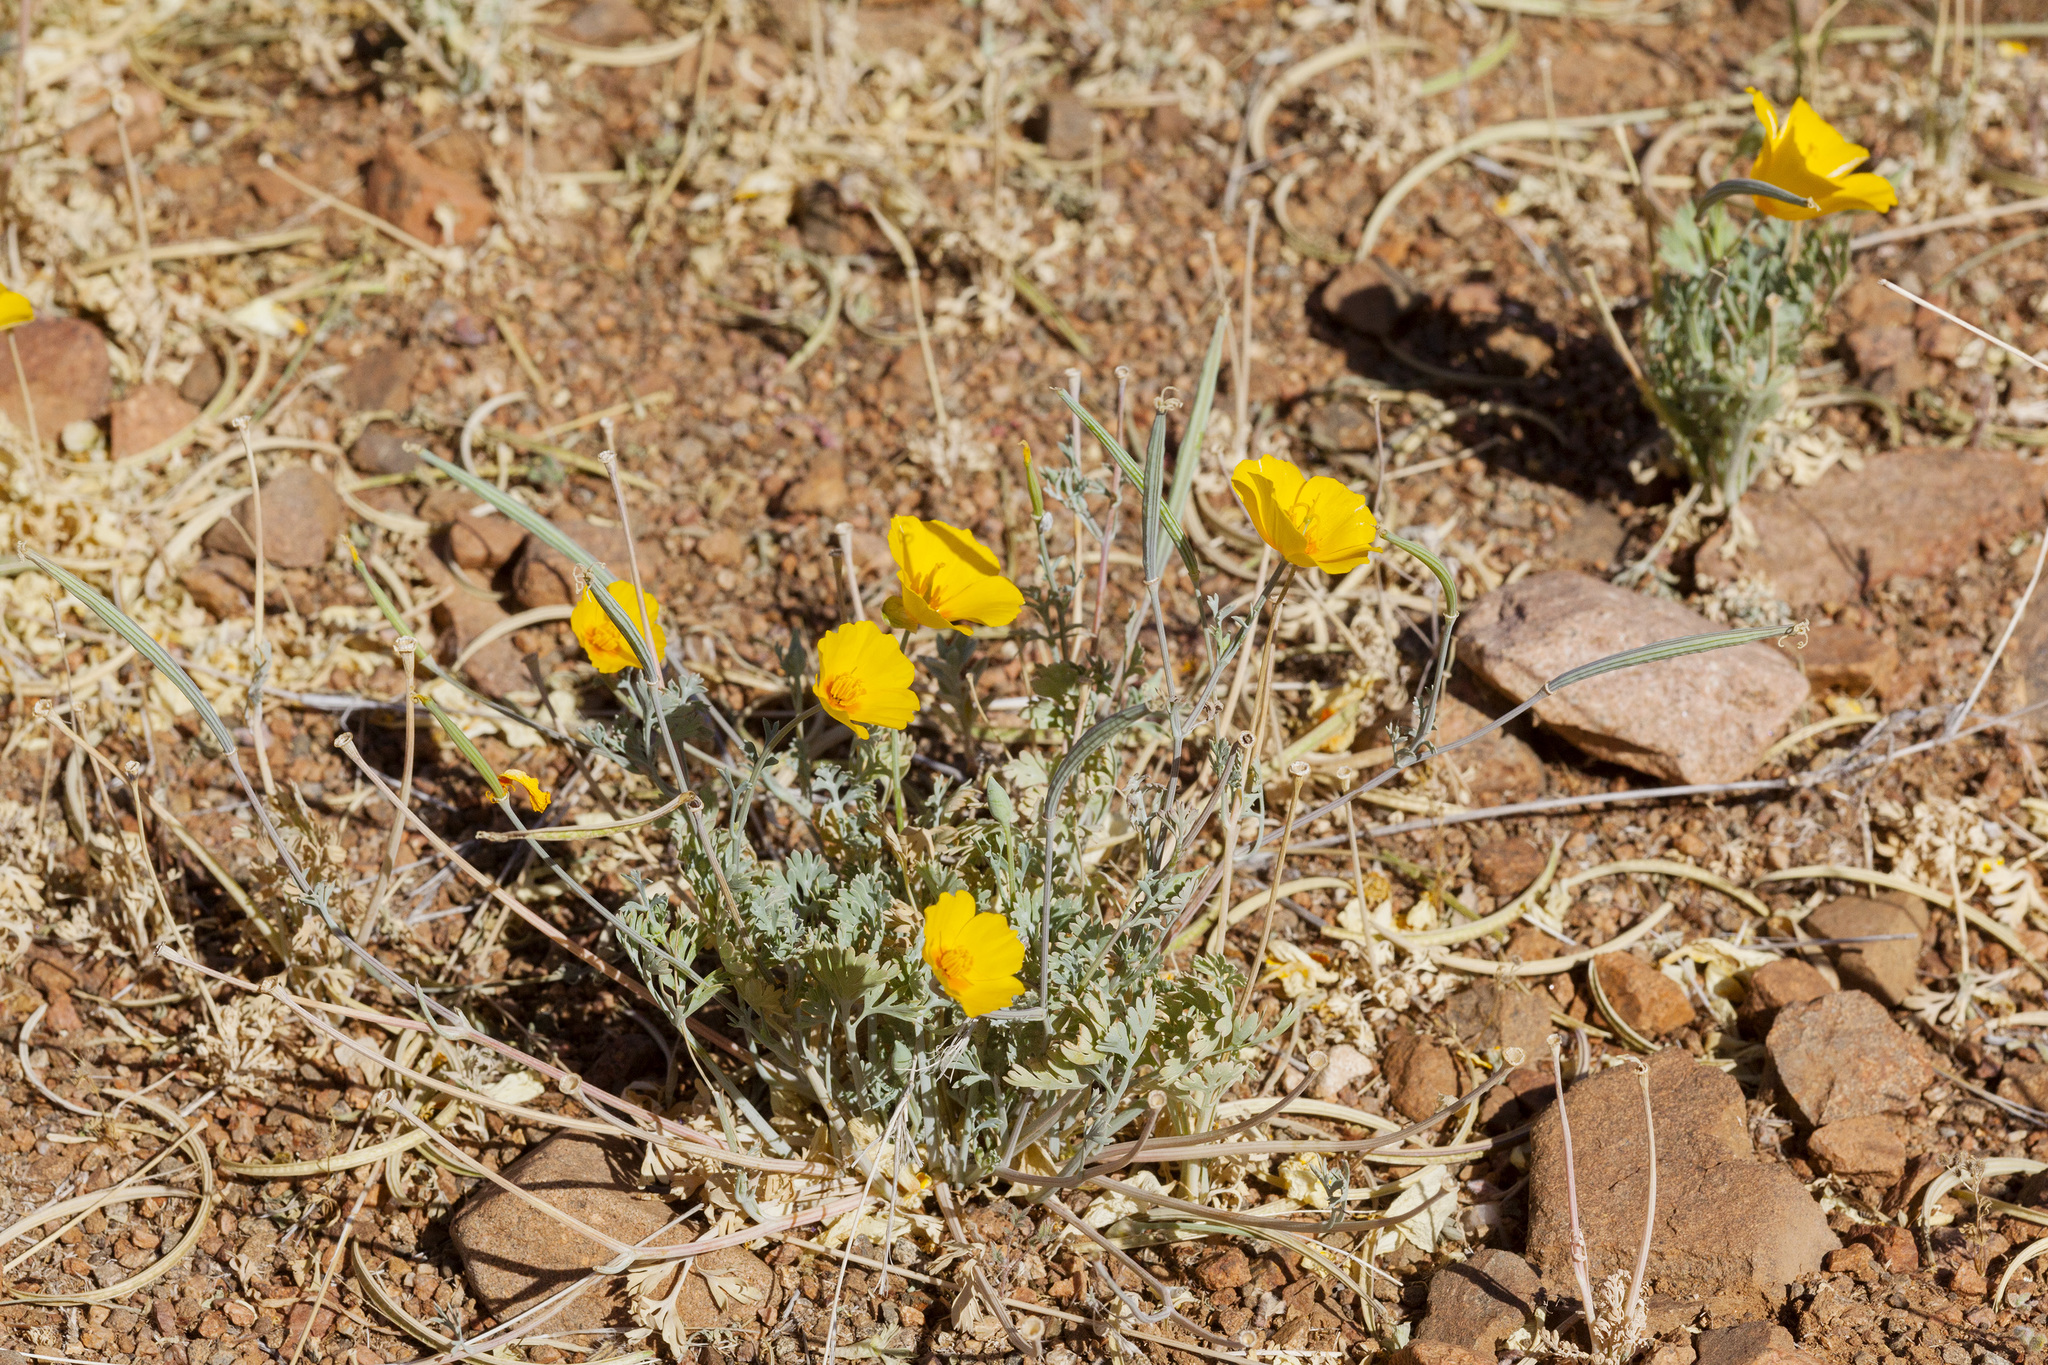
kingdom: Plantae
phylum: Tracheophyta
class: Magnoliopsida
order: Ranunculales
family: Papaveraceae
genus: Eschscholzia
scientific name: Eschscholzia californica
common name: California poppy
